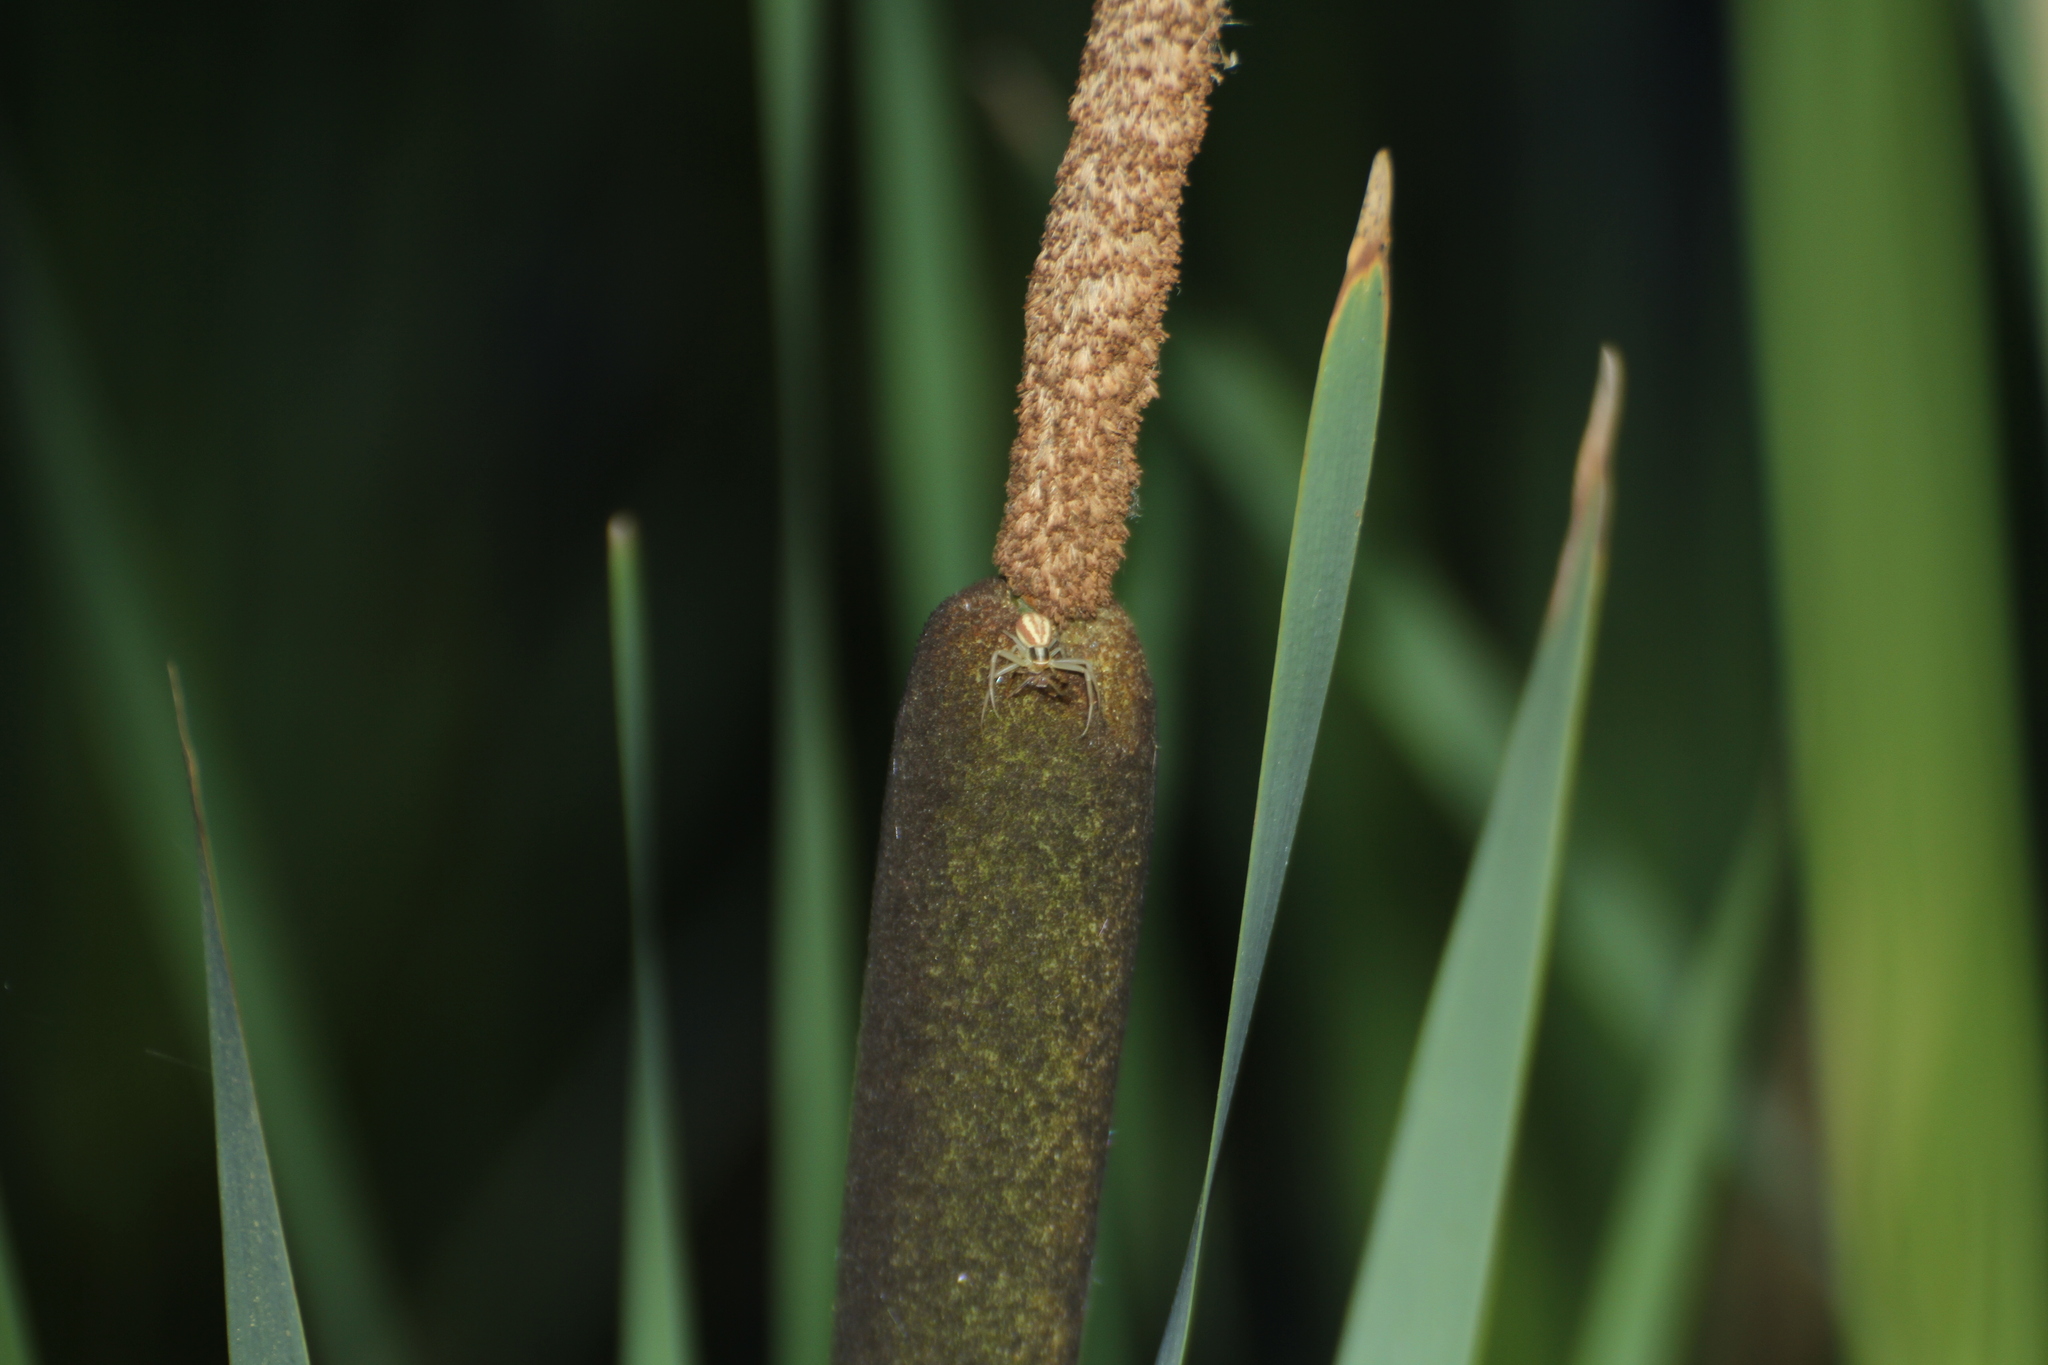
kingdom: Animalia
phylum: Arthropoda
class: Arachnida
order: Araneae
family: Thomisidae
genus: Runcinia
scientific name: Runcinia grammica
